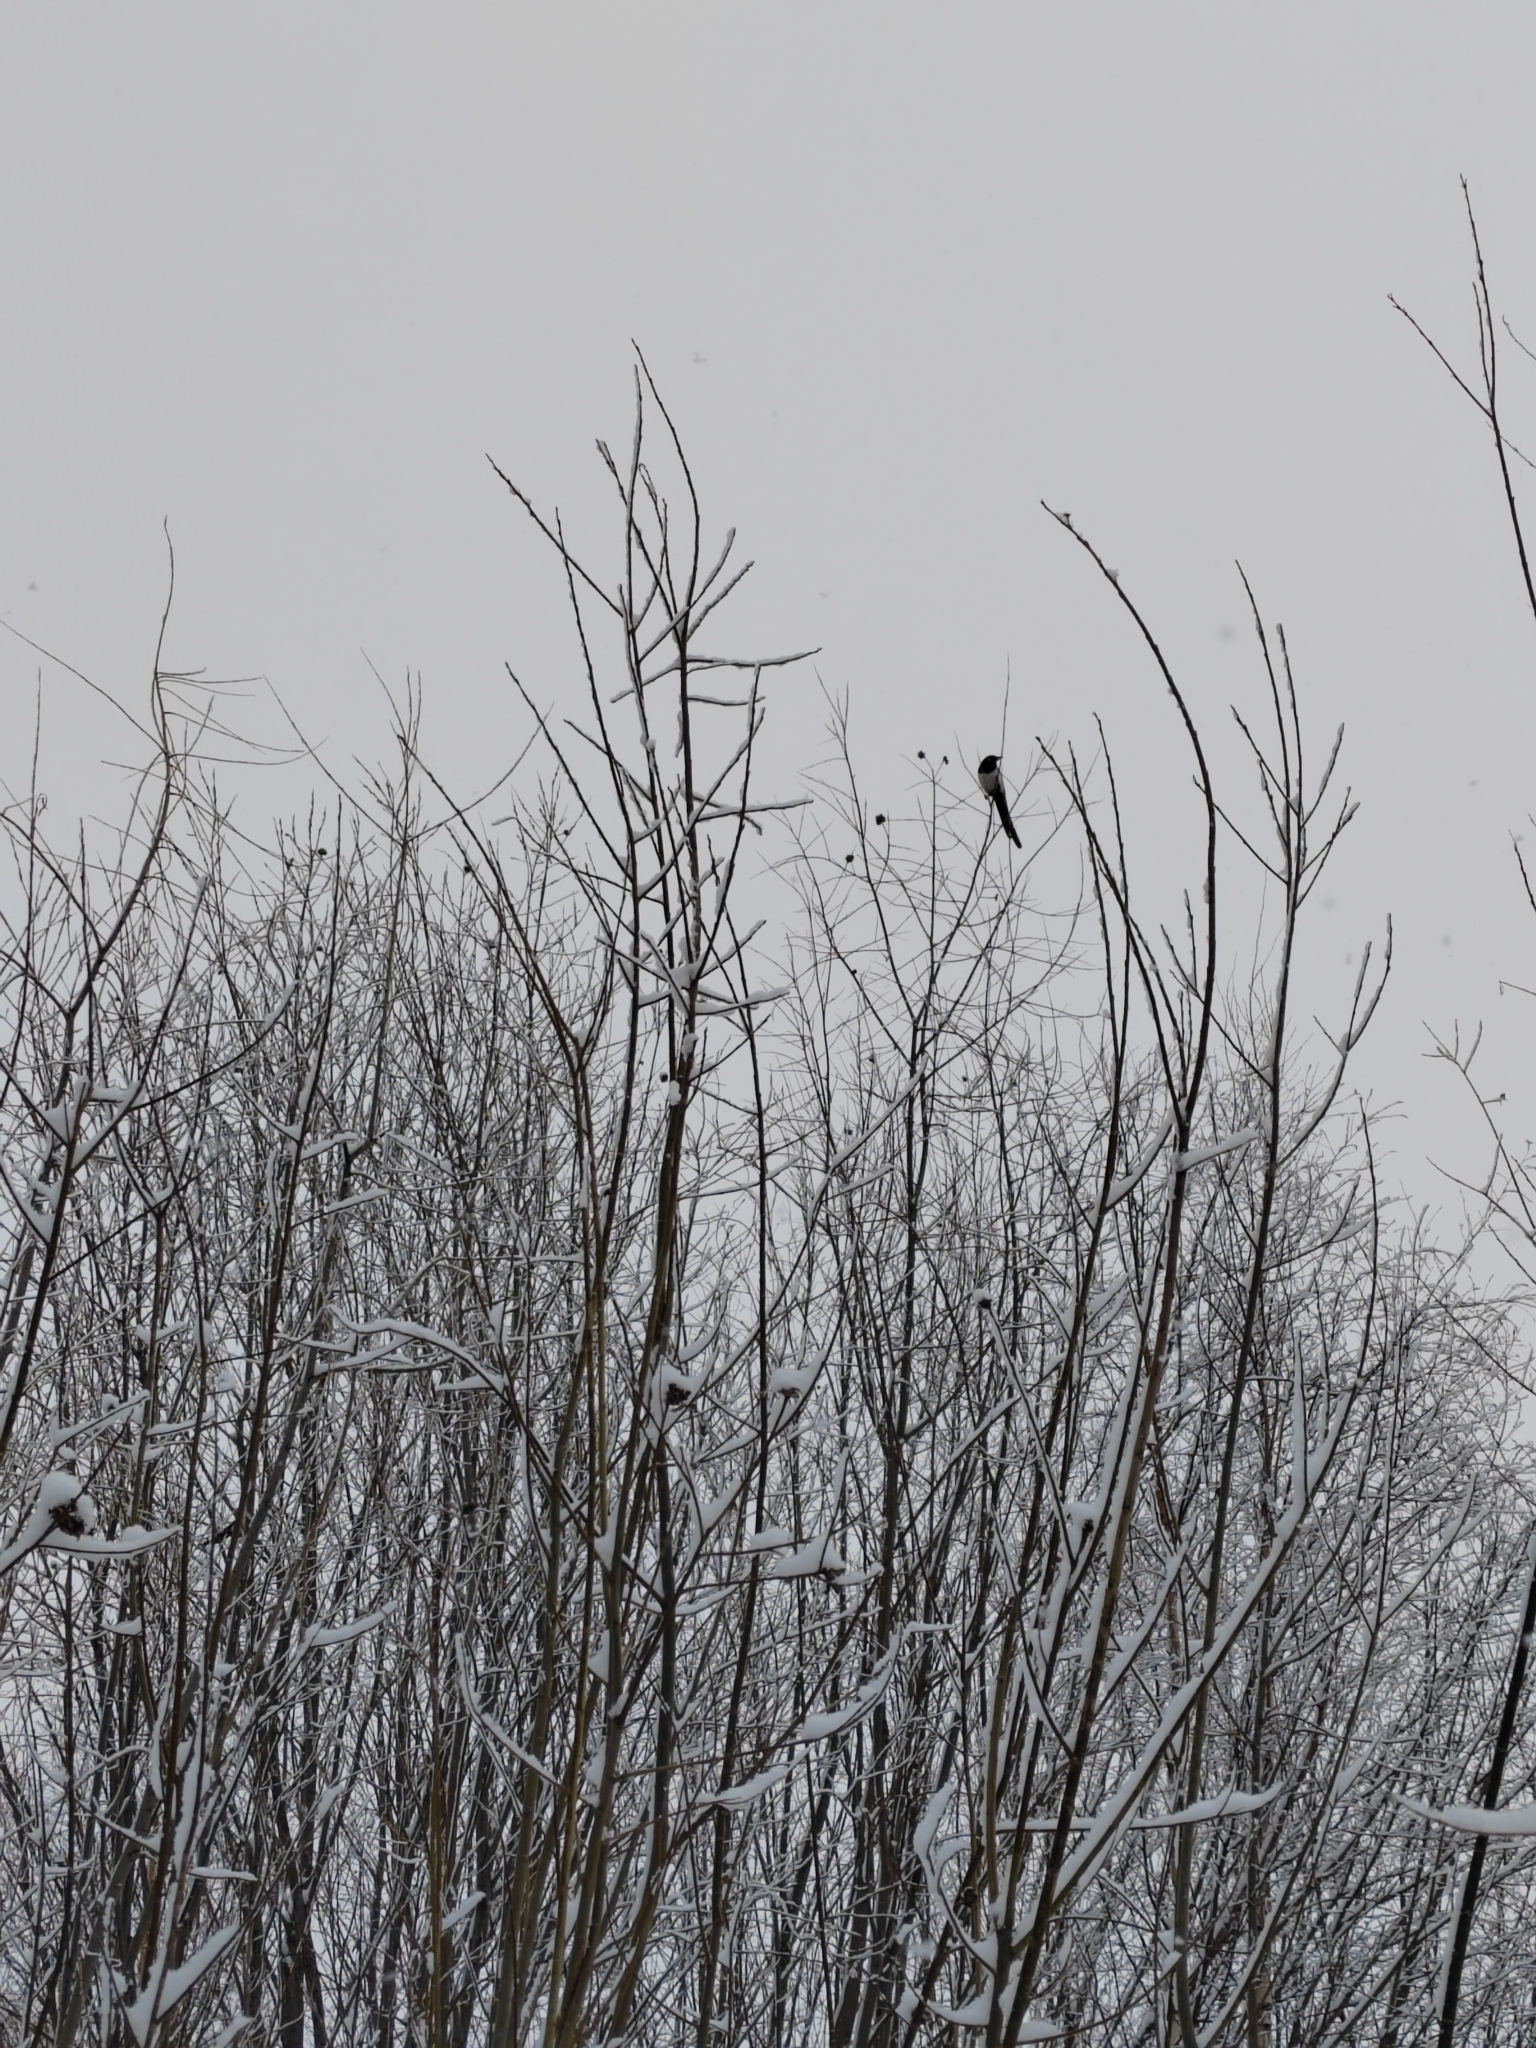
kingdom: Animalia
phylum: Chordata
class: Aves
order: Passeriformes
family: Corvidae
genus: Pica
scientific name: Pica pica
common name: Eurasian magpie
